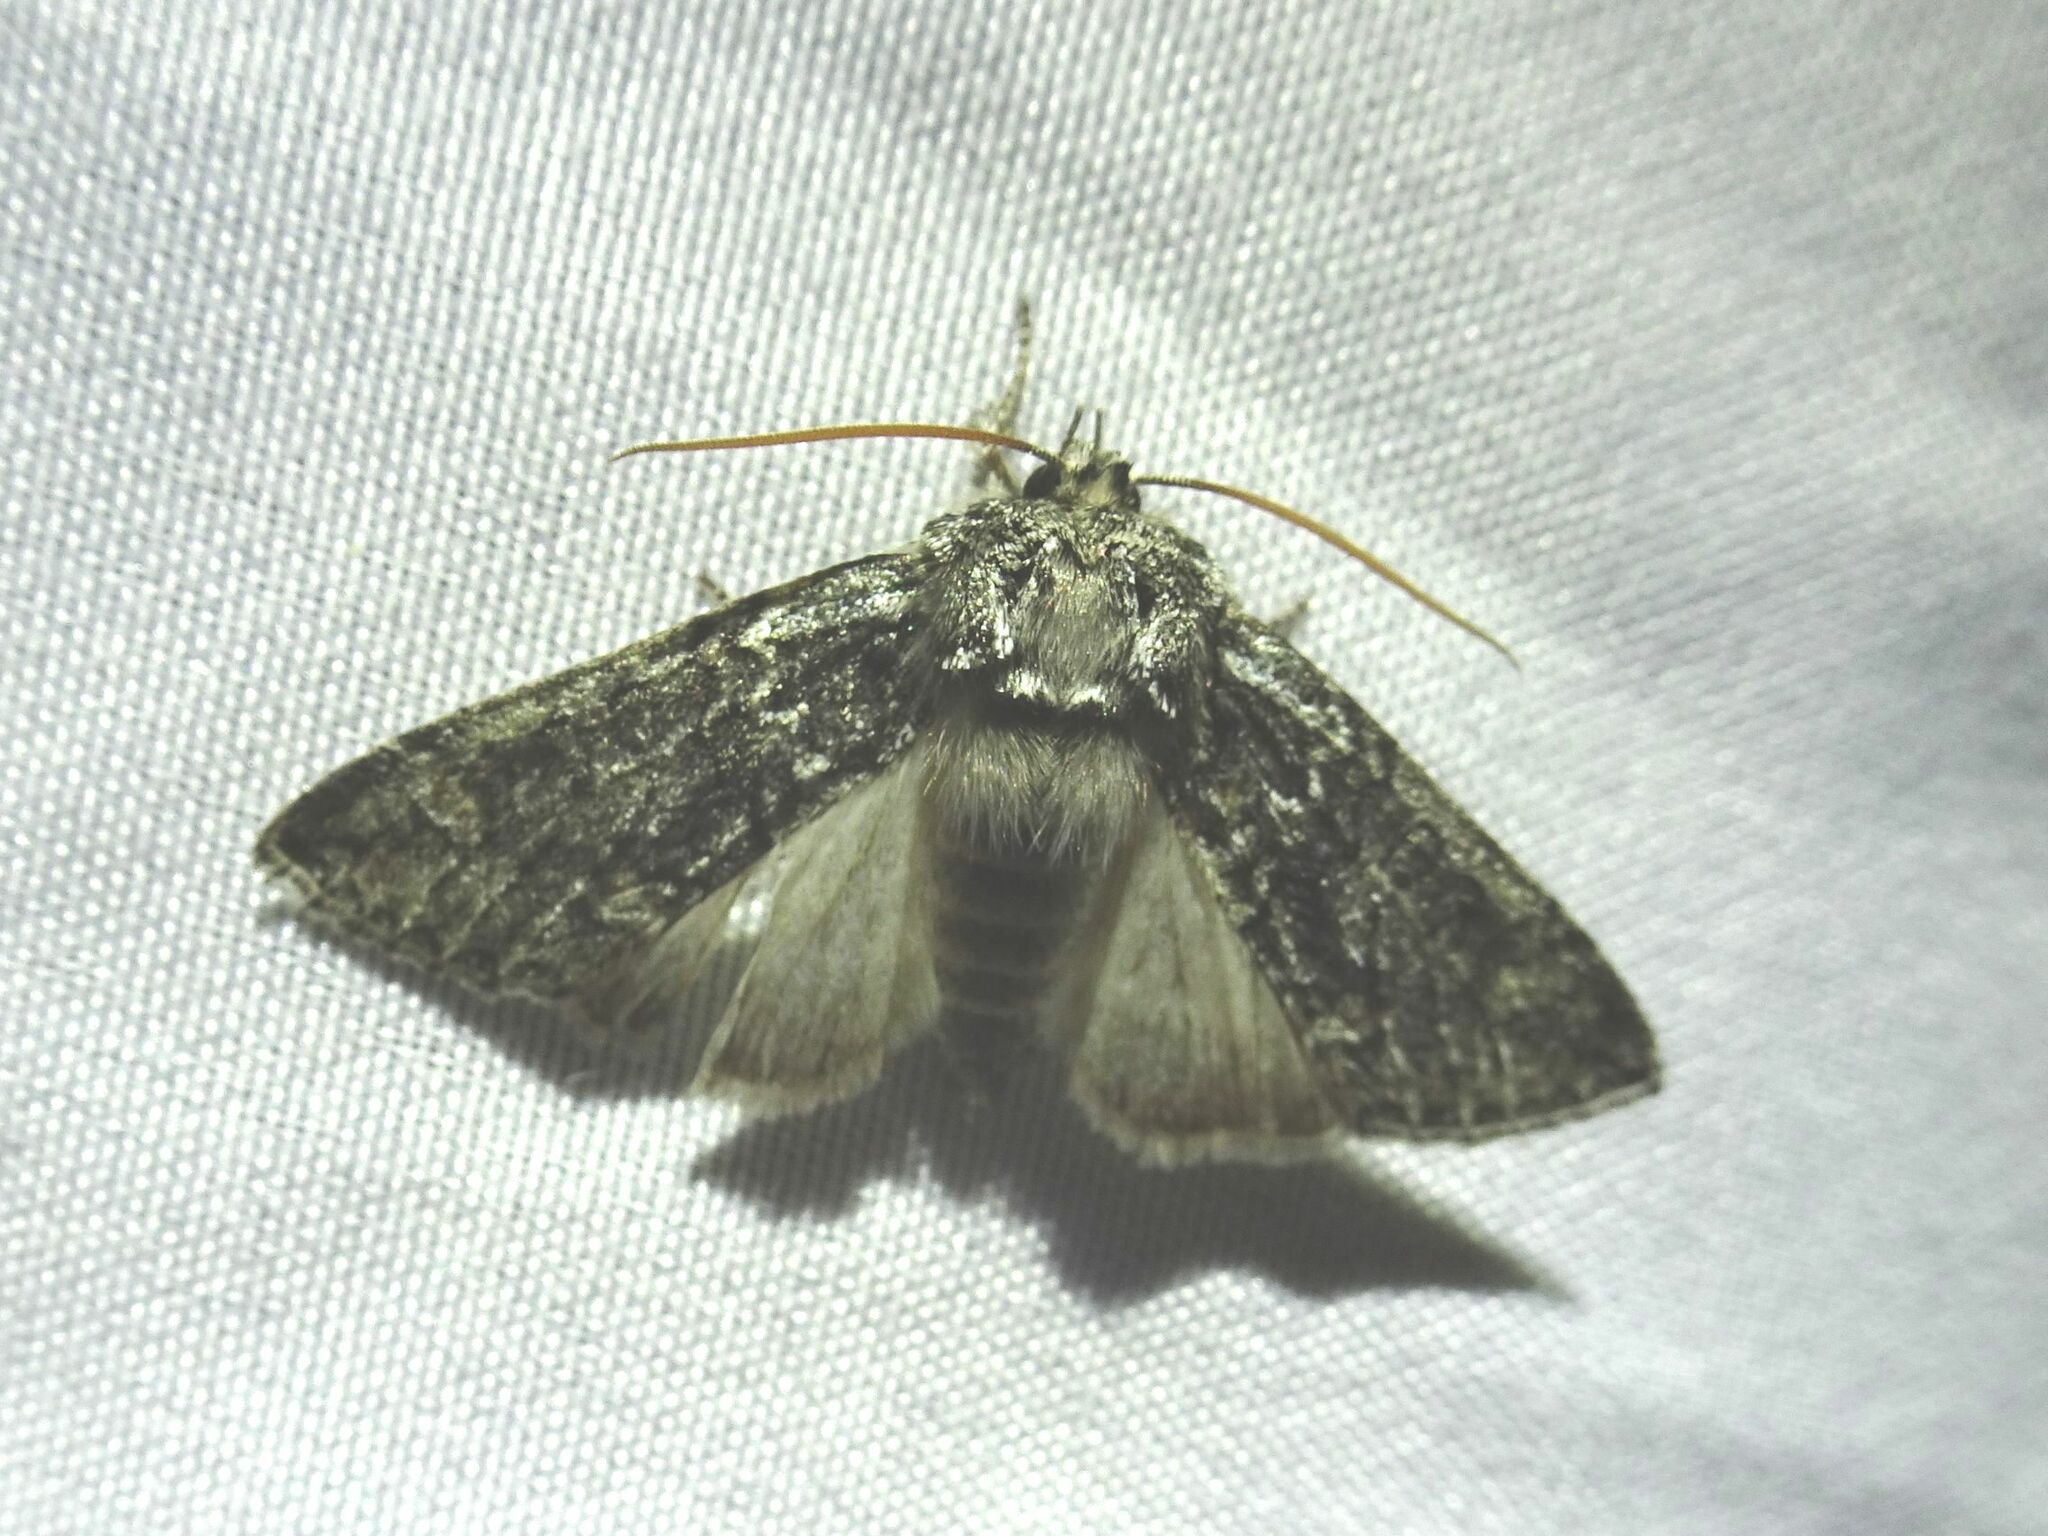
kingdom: Animalia
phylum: Arthropoda
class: Insecta
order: Lepidoptera
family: Drepanidae
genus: Polyploca
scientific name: Polyploca ridens
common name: Frosted green
